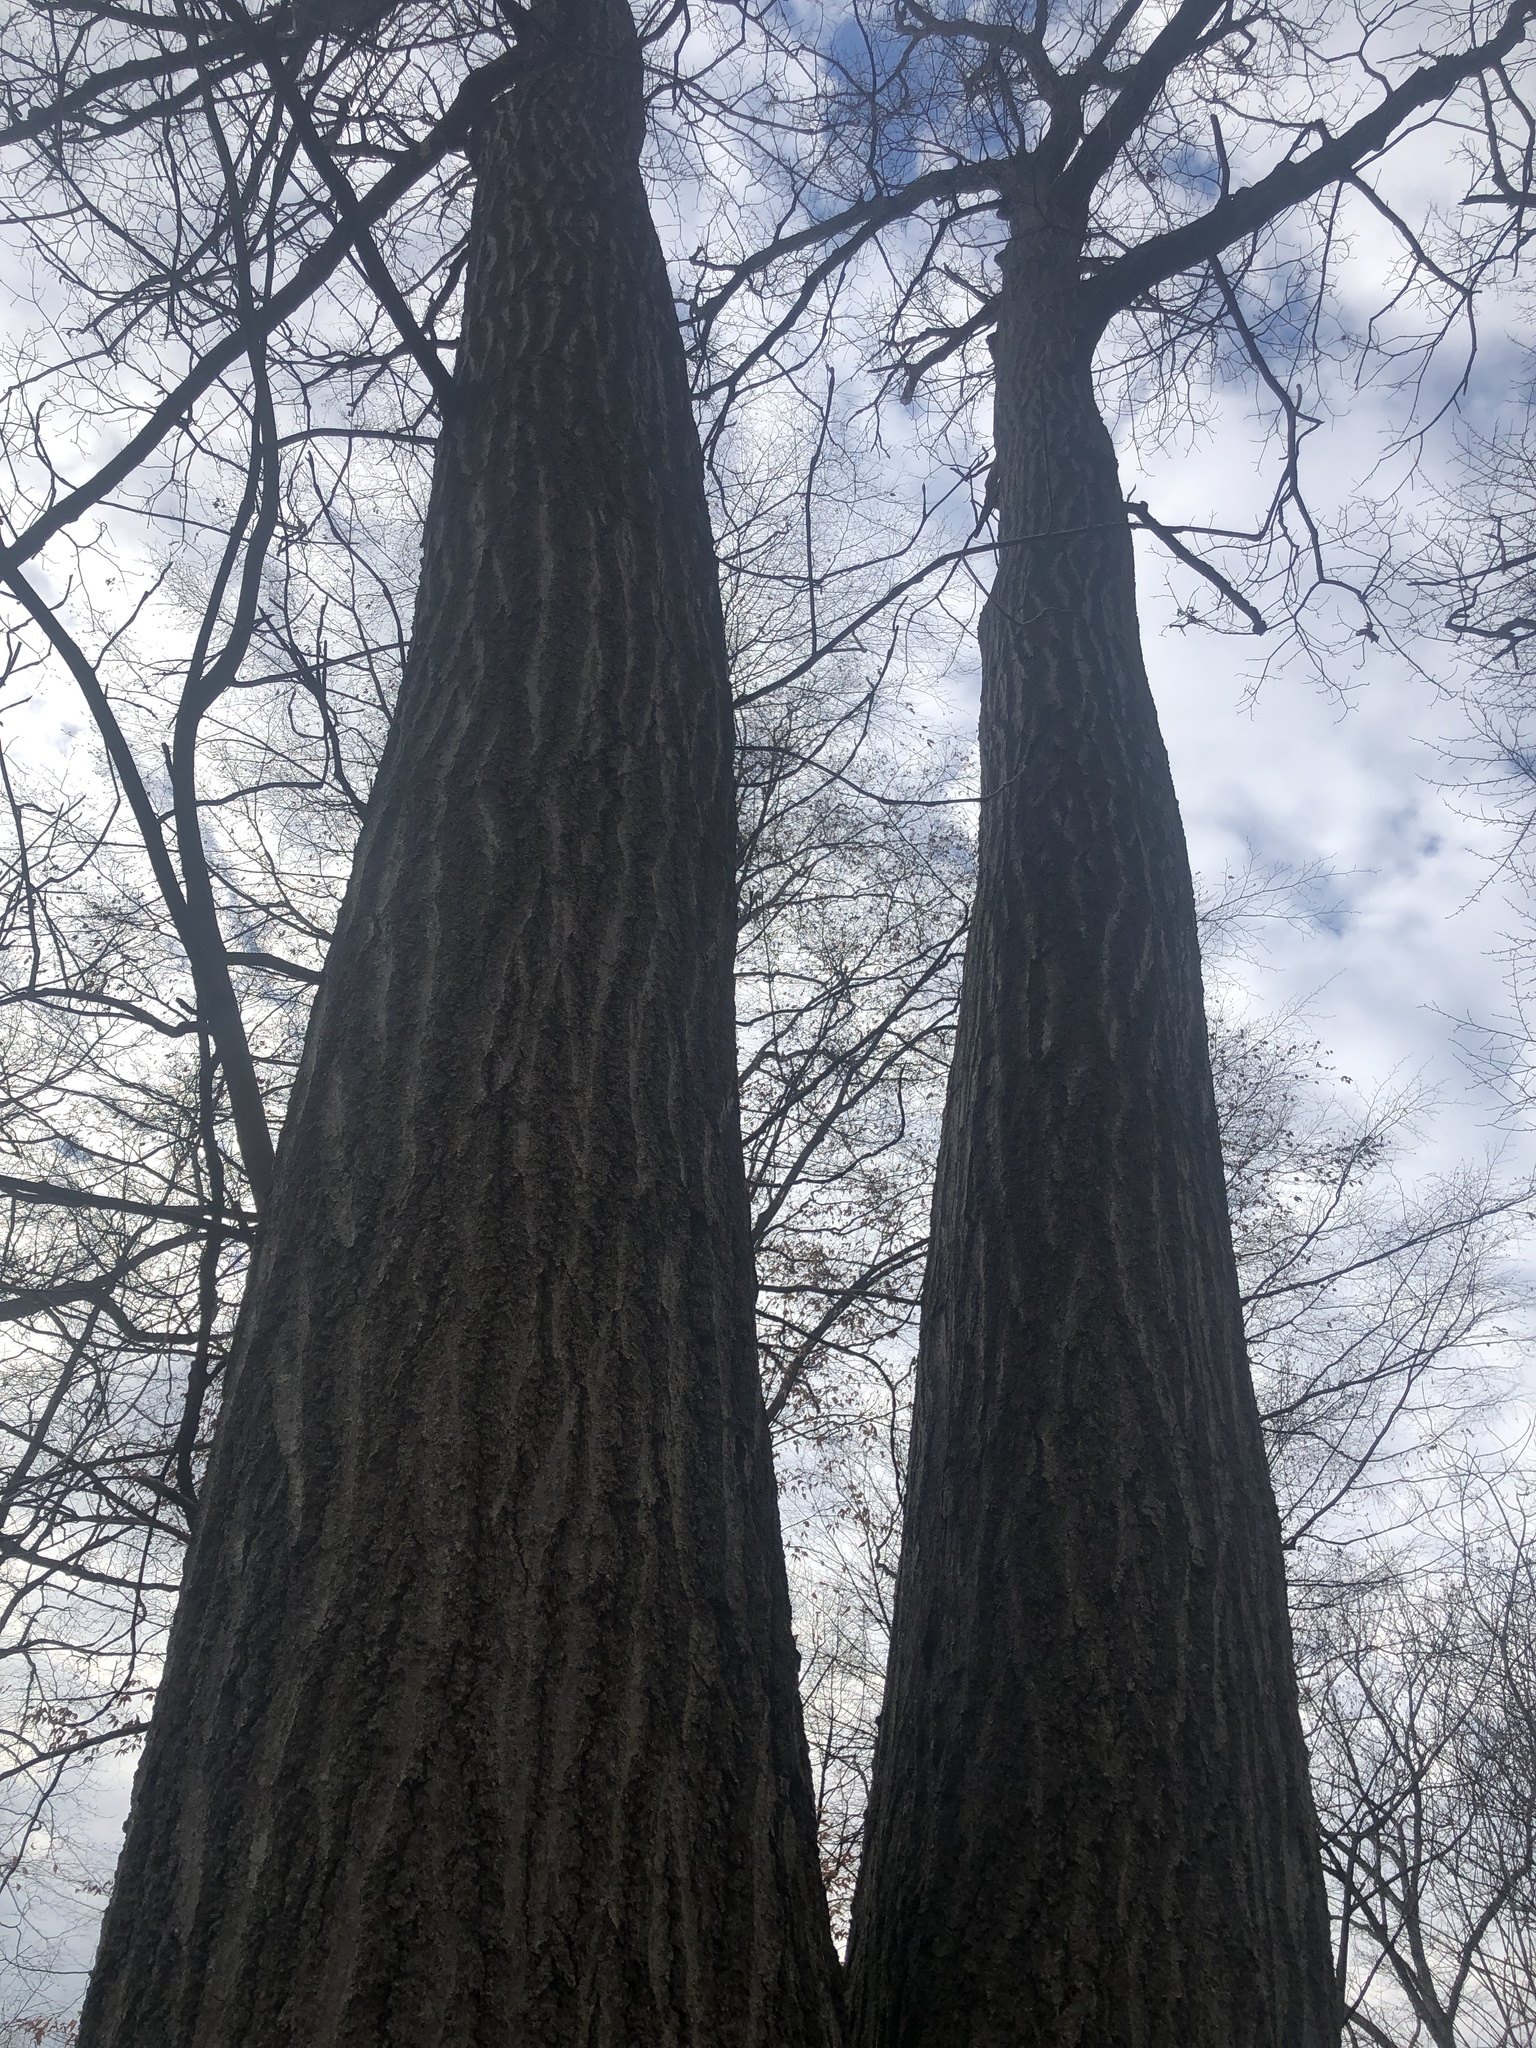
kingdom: Plantae
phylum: Tracheophyta
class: Magnoliopsida
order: Fagales
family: Fagaceae
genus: Quercus
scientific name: Quercus rubra
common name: Red oak
